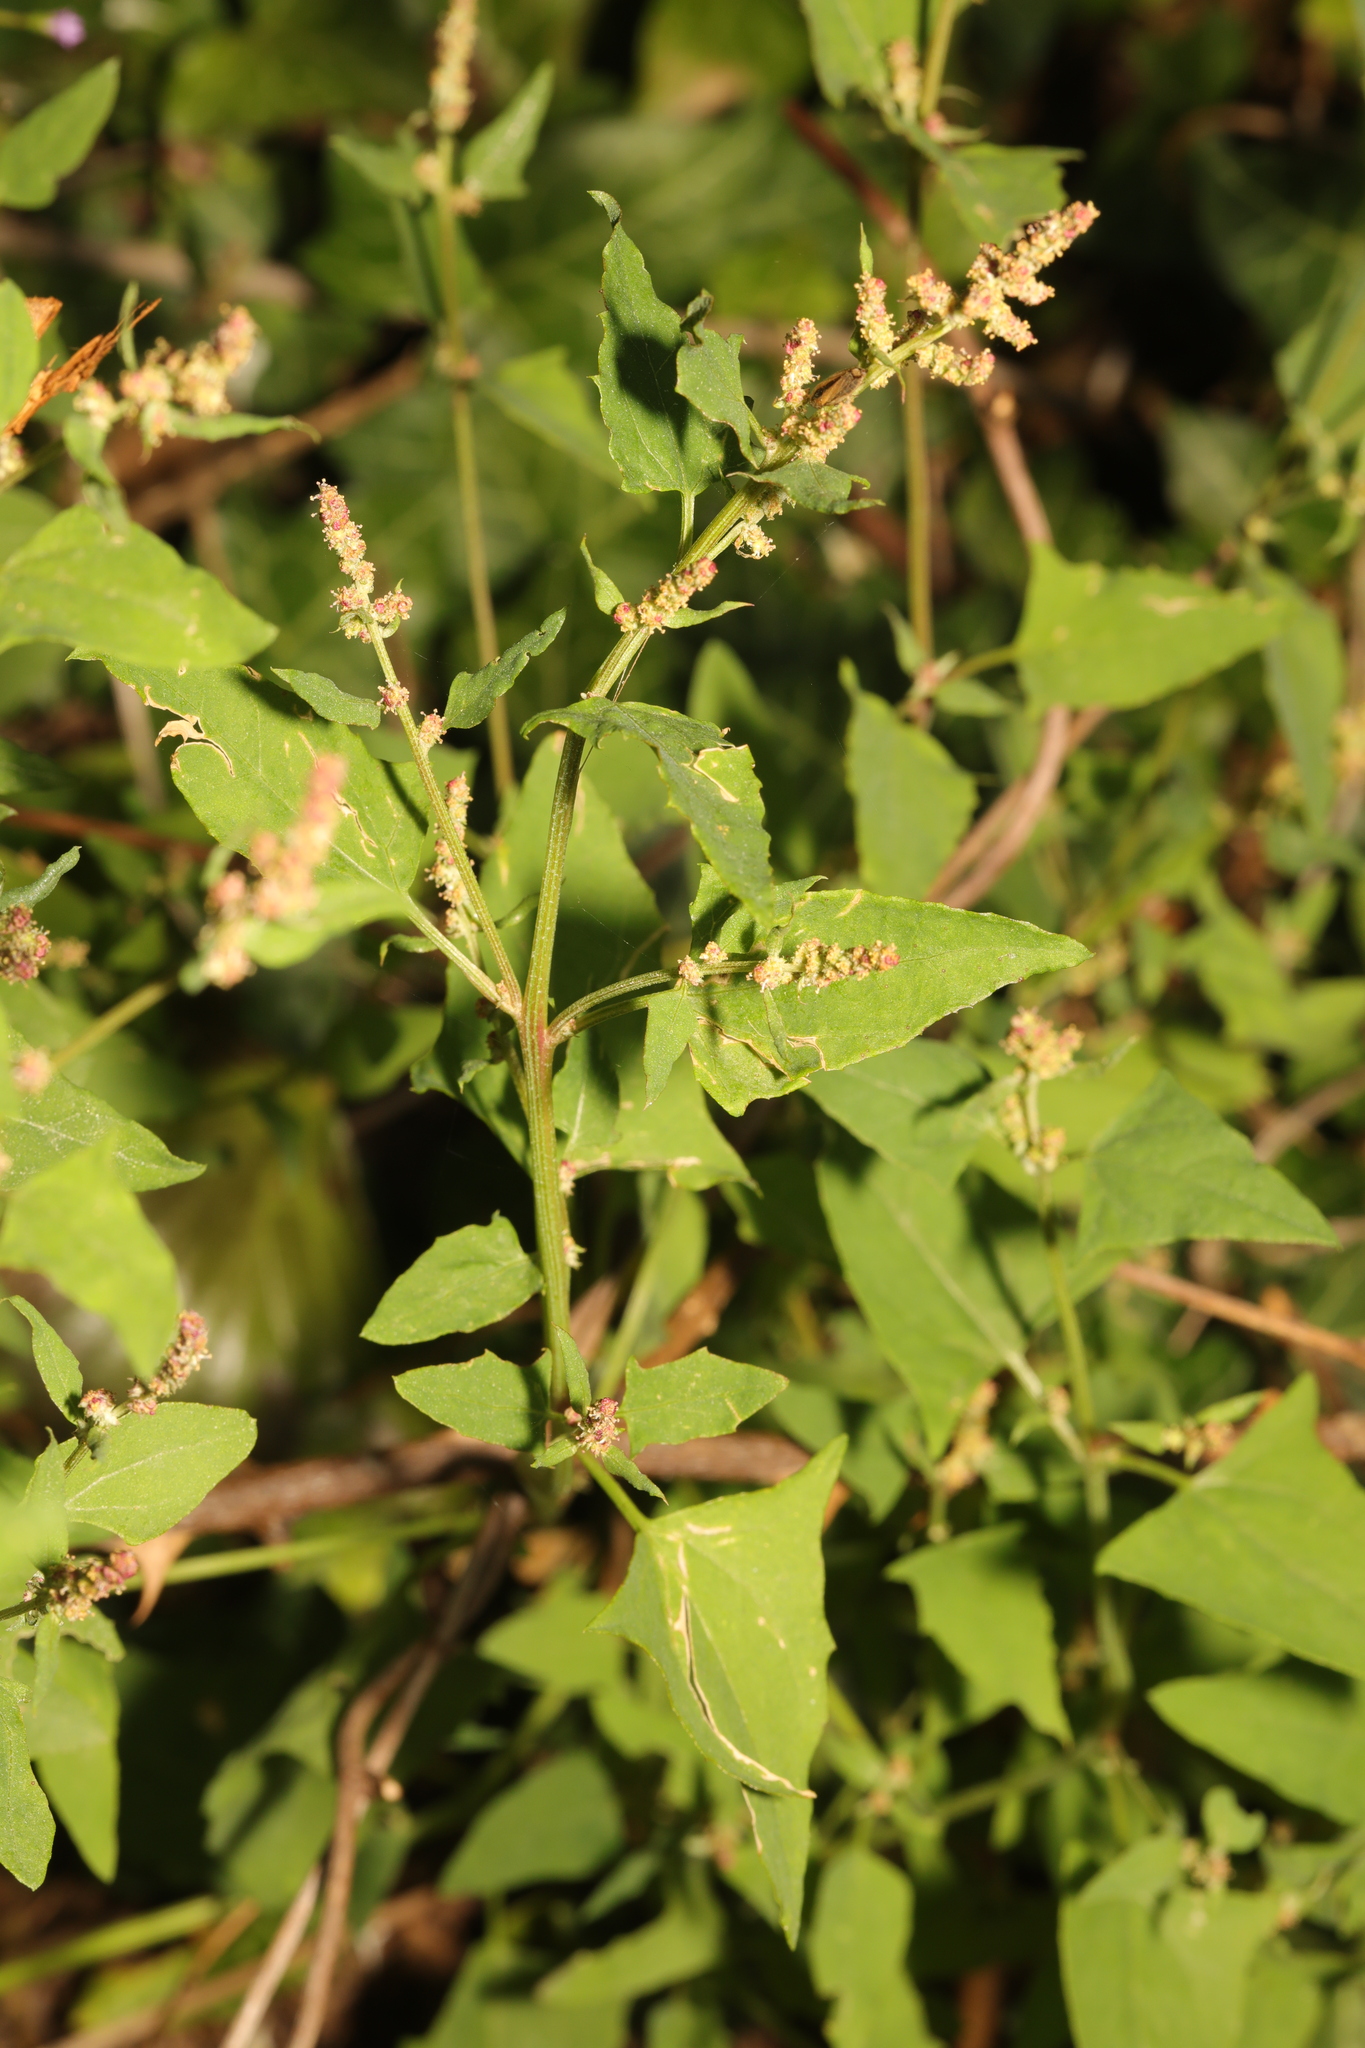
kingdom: Plantae
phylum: Tracheophyta
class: Magnoliopsida
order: Caryophyllales
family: Amaranthaceae
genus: Atriplex
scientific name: Atriplex prostrata
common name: Spear-leaved orache
